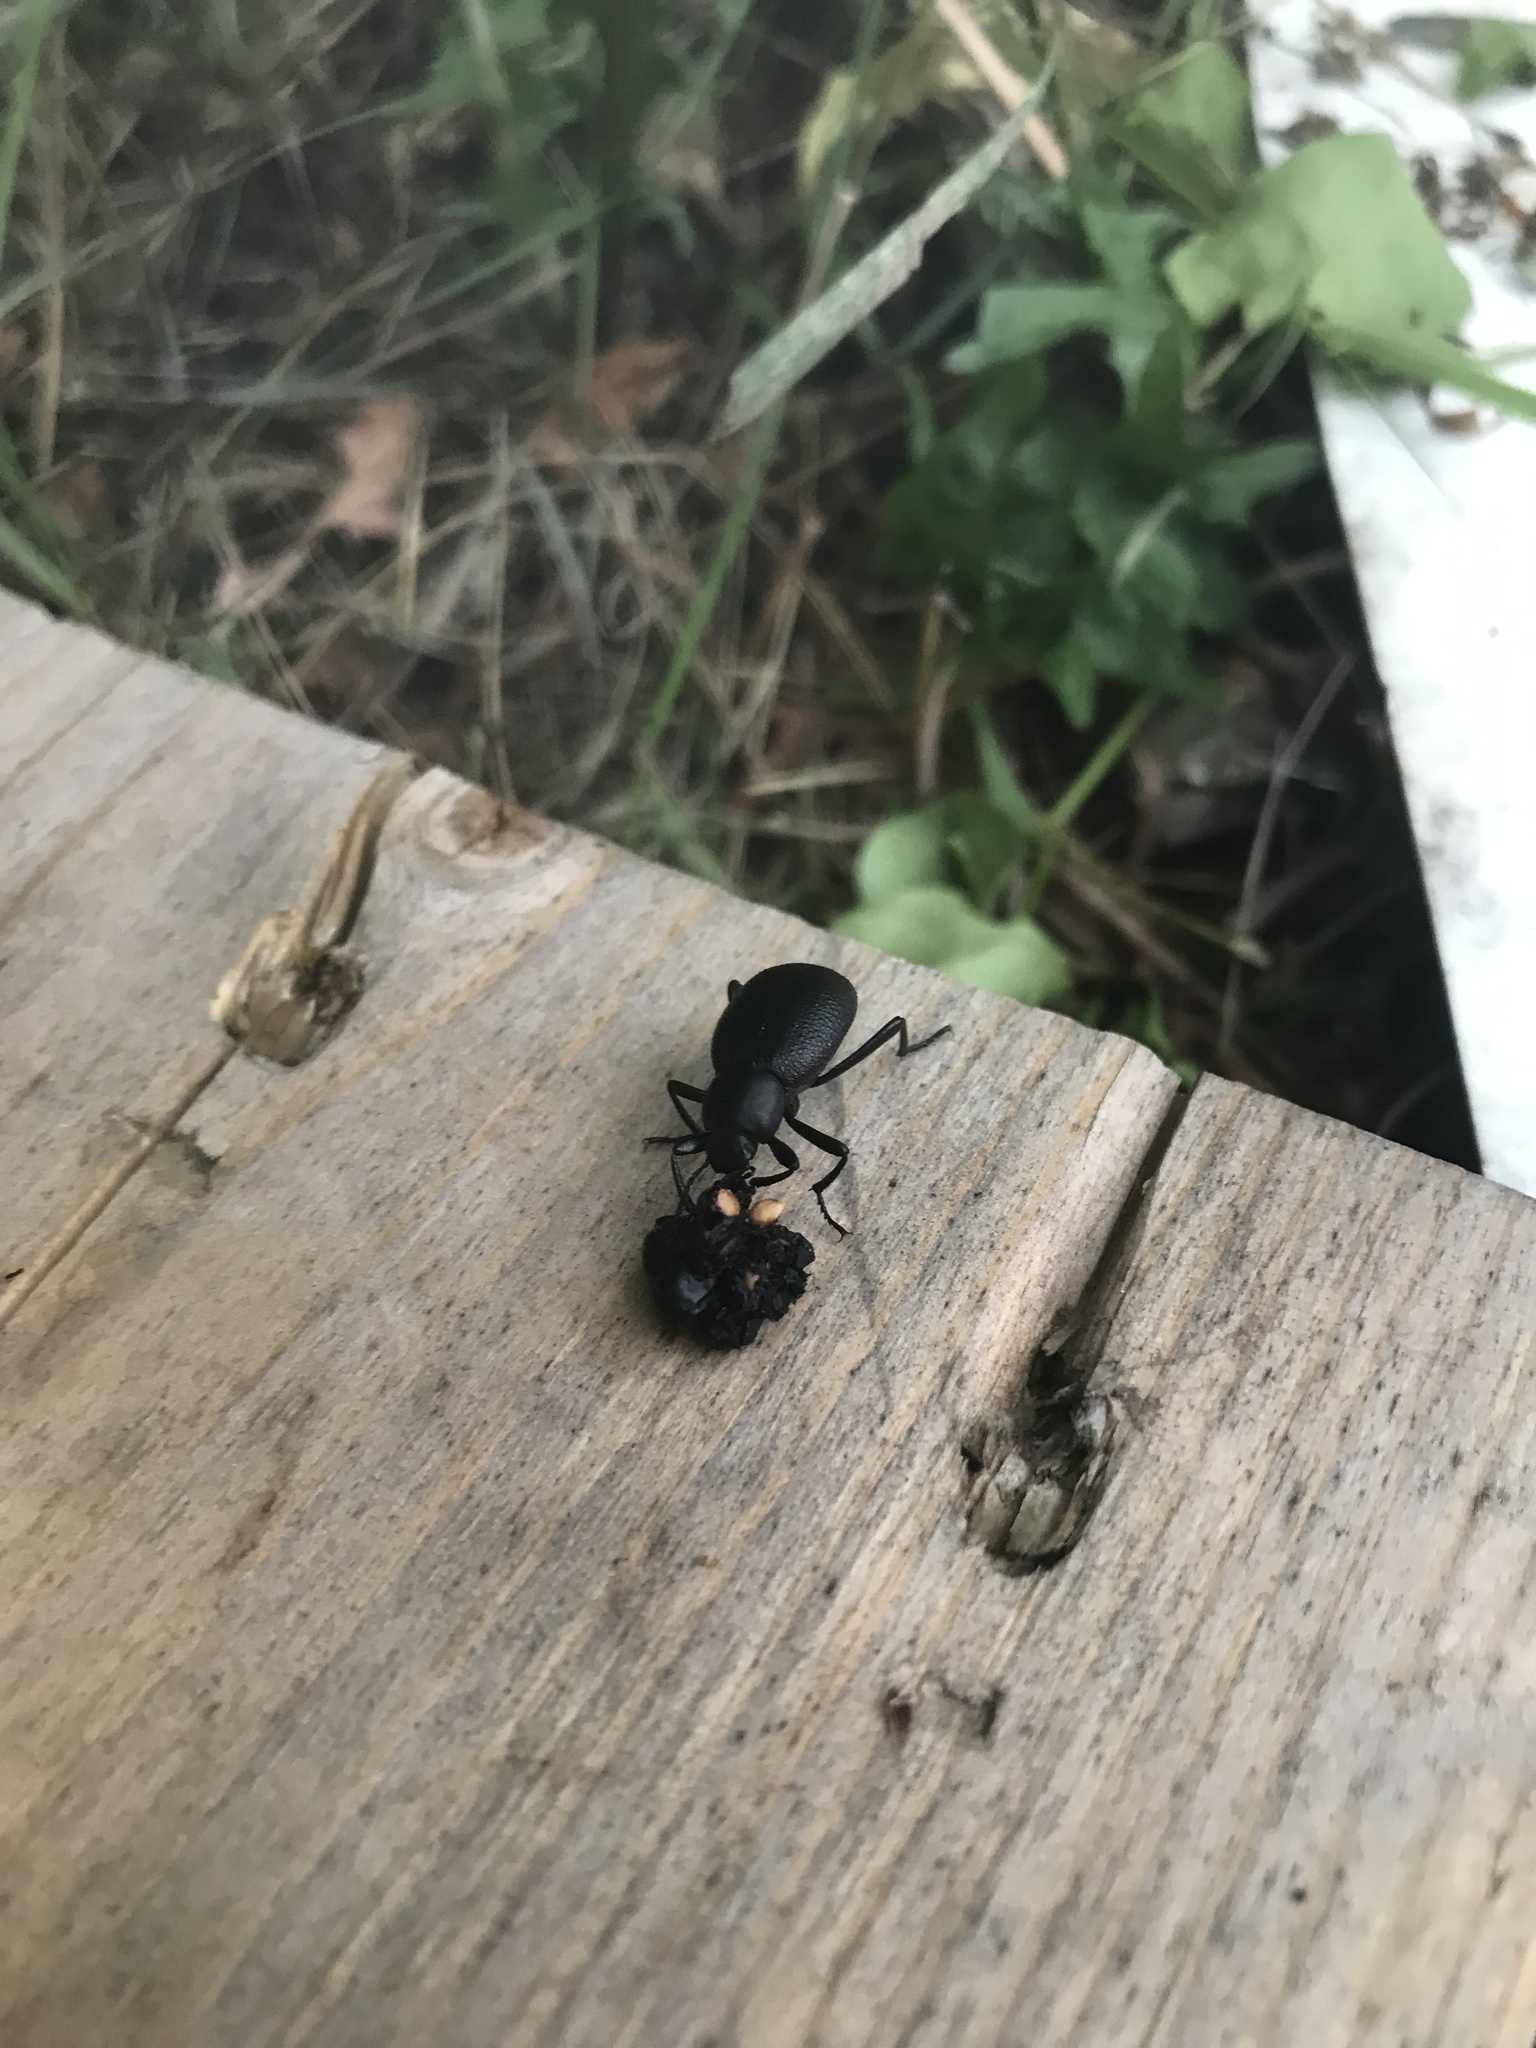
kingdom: Animalia
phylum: Arthropoda
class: Insecta
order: Coleoptera
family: Tenebrionidae
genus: Eleodes
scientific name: Eleodes subtuberculata
